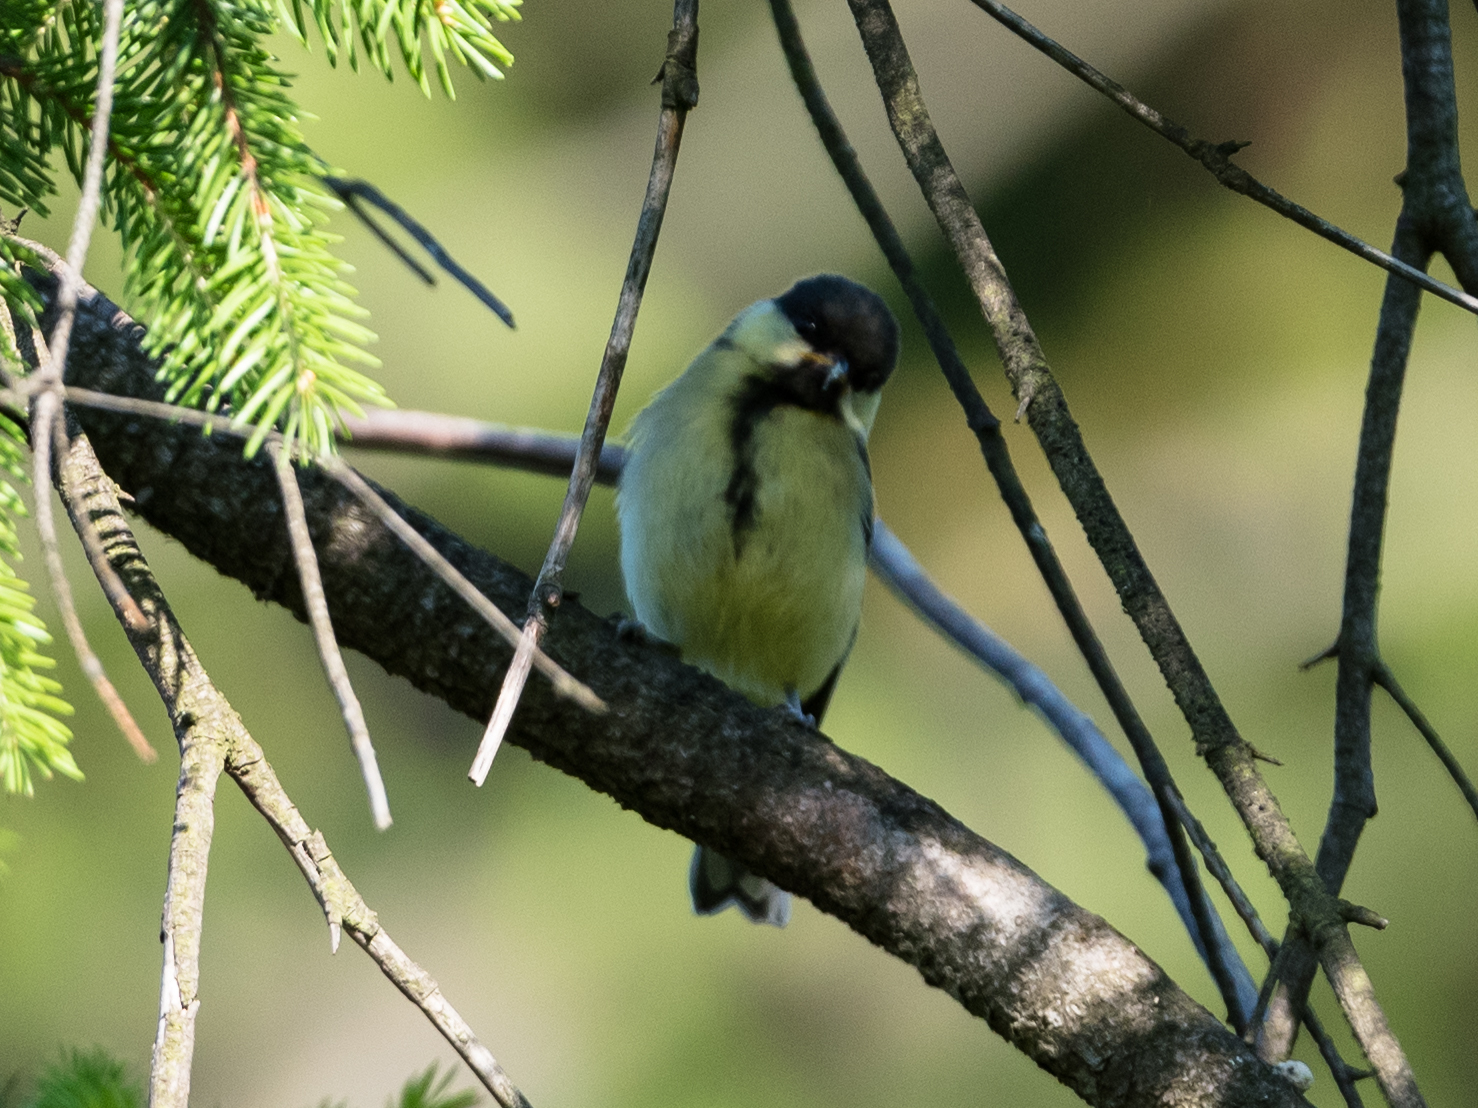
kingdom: Animalia
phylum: Chordata
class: Aves
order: Passeriformes
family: Paridae
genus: Parus
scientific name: Parus major
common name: Great tit
